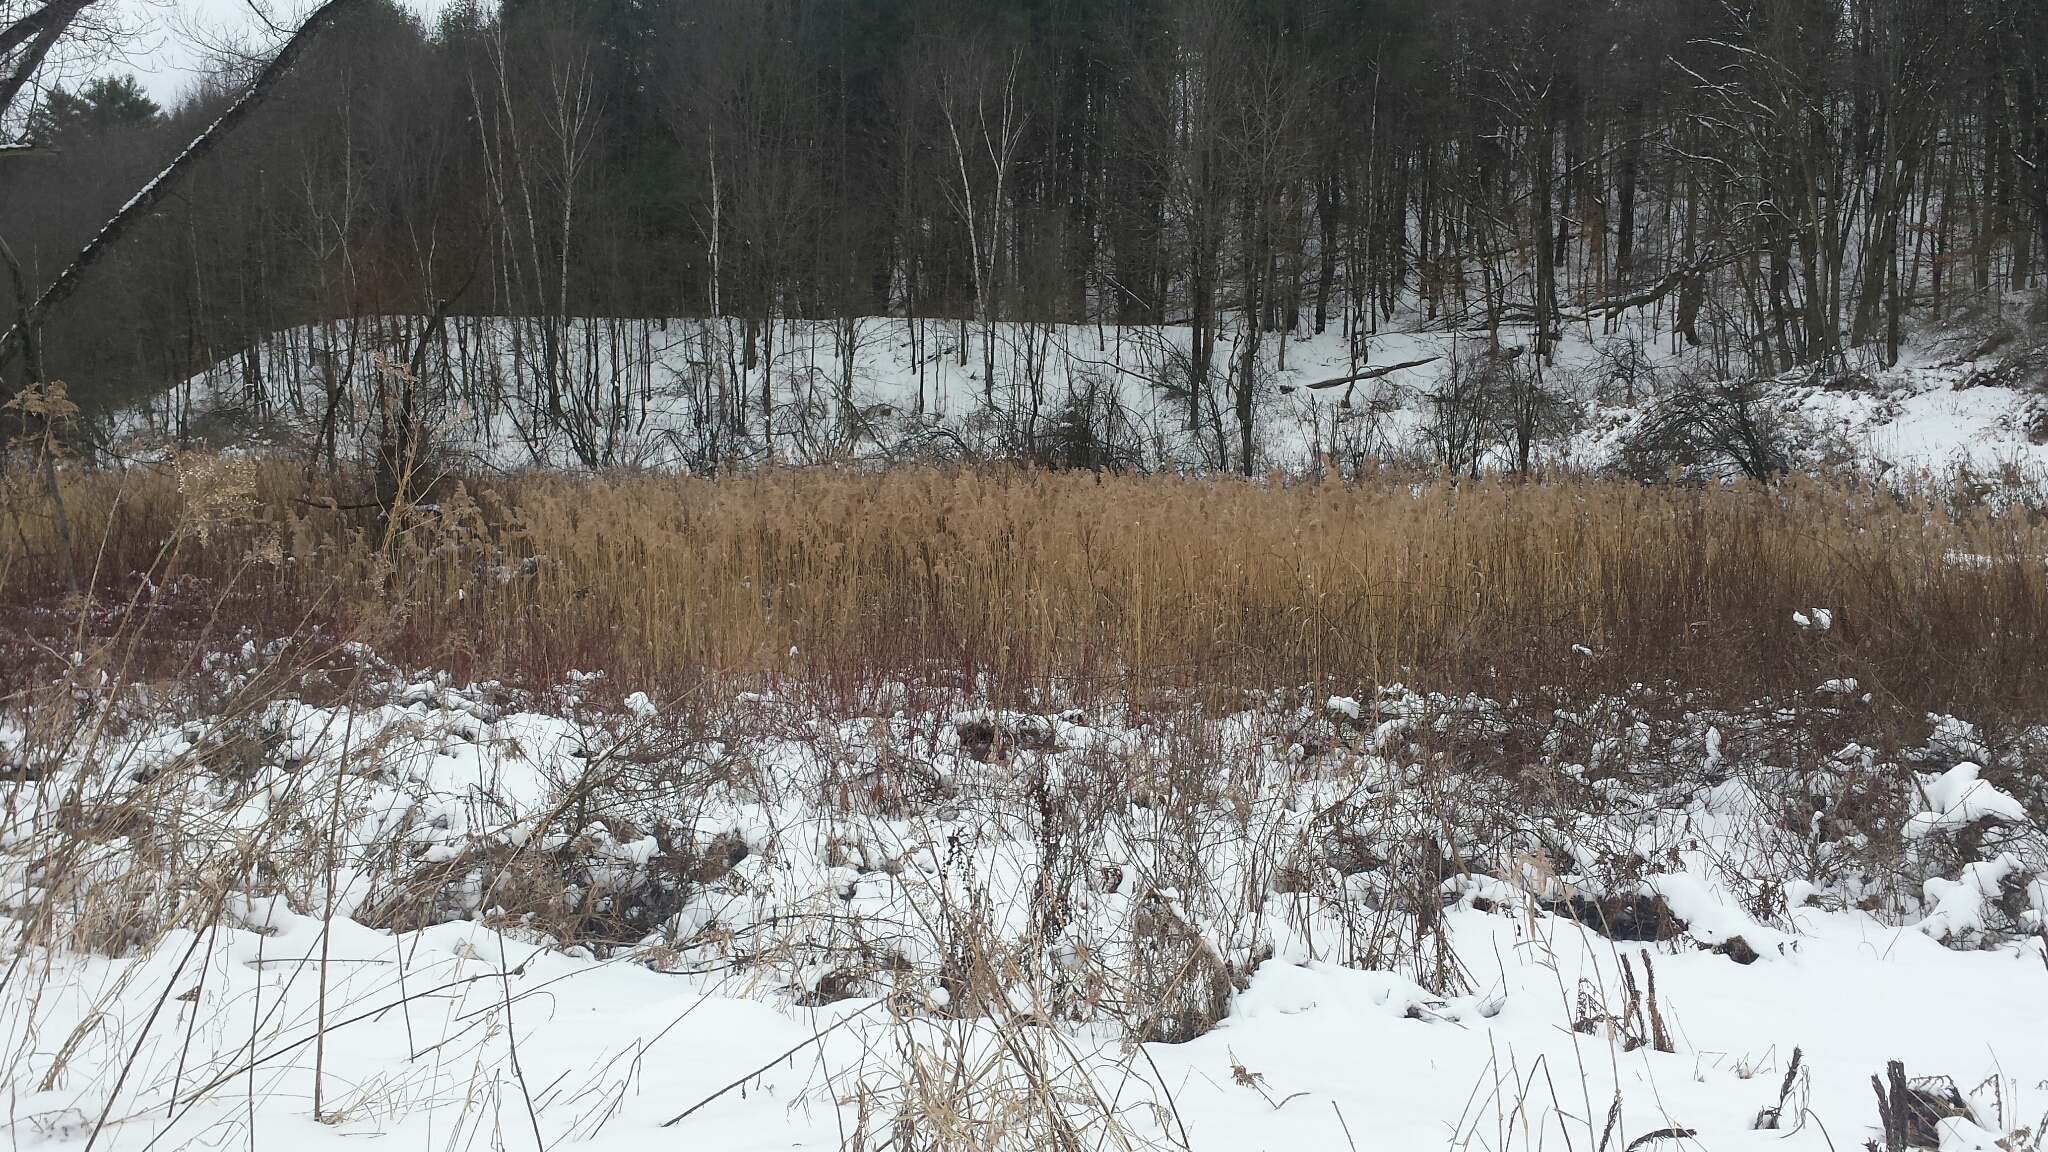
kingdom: Plantae
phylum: Tracheophyta
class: Liliopsida
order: Poales
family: Poaceae
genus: Phragmites
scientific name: Phragmites australis
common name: Common reed
